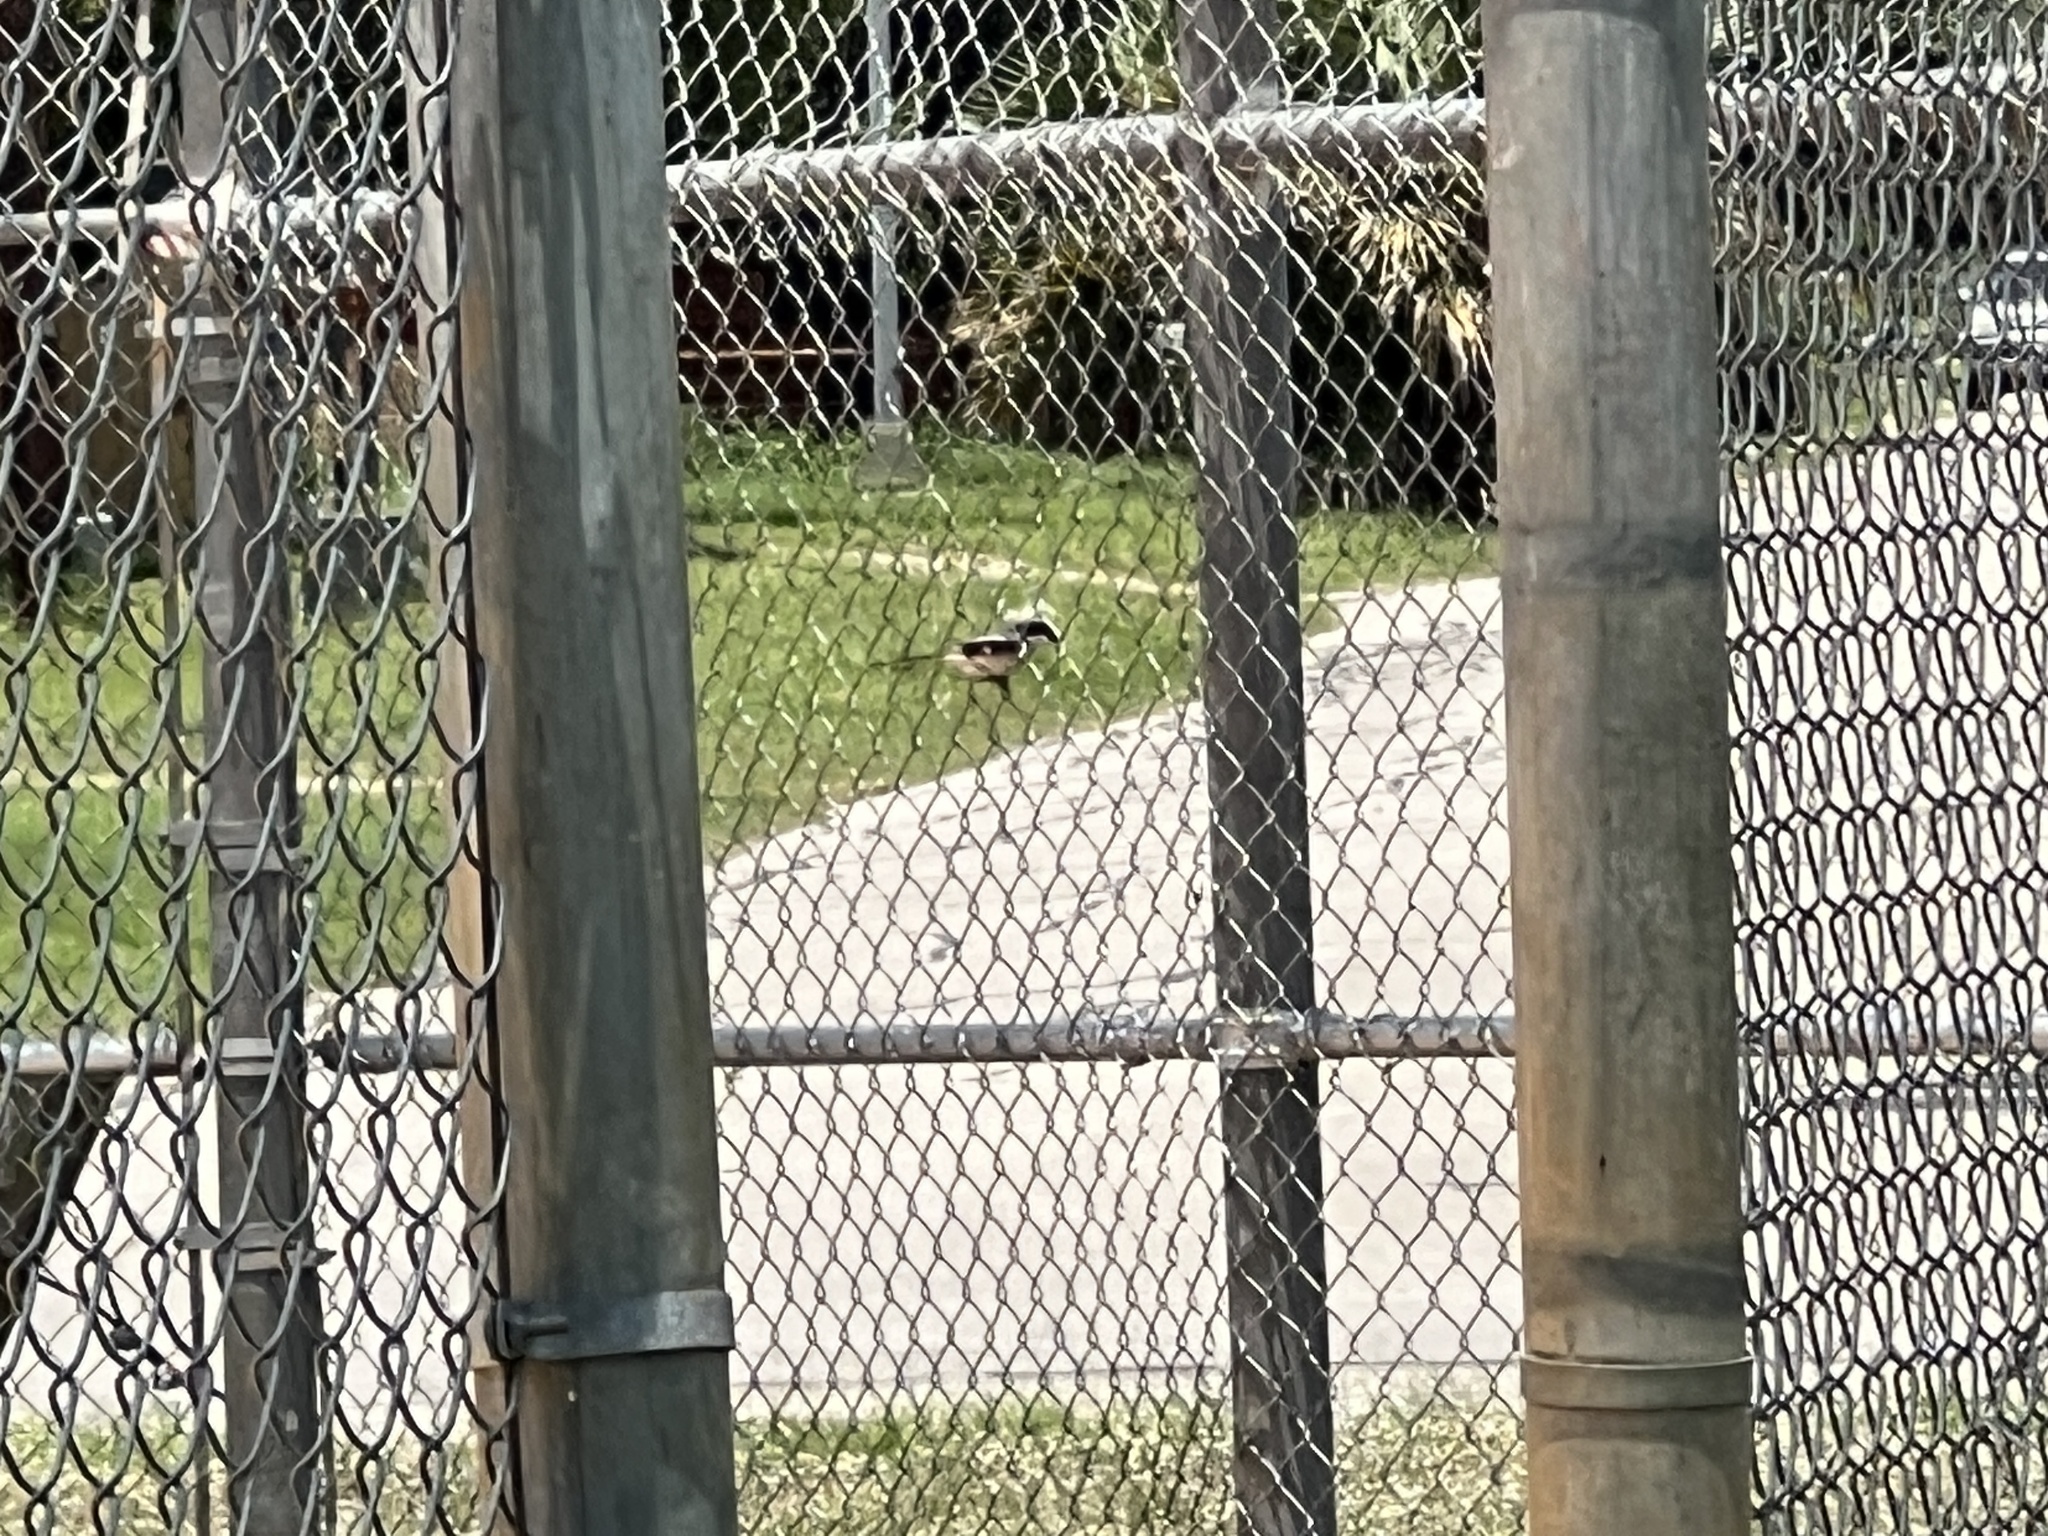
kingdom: Animalia
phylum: Chordata
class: Aves
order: Passeriformes
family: Laniidae
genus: Lanius
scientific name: Lanius ludovicianus
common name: Loggerhead shrike
